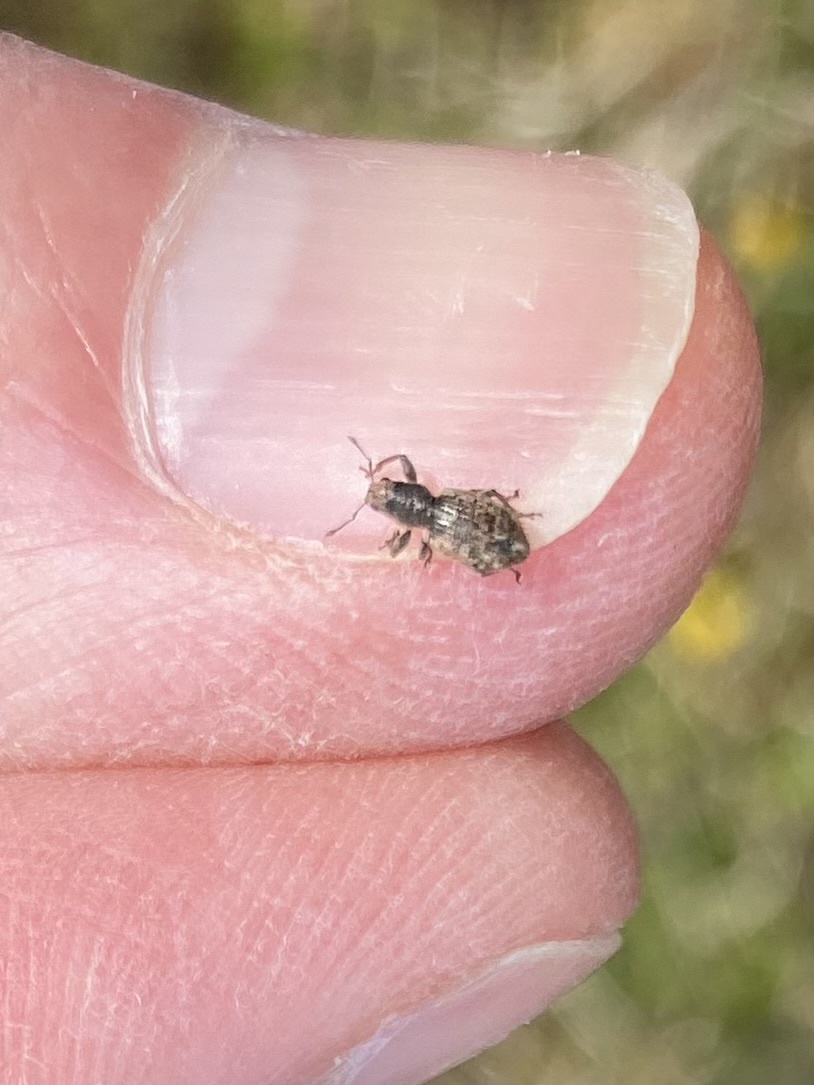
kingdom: Animalia
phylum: Arthropoda
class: Insecta
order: Coleoptera
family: Curculionidae
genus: Andrion
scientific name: Andrion regensteinense
